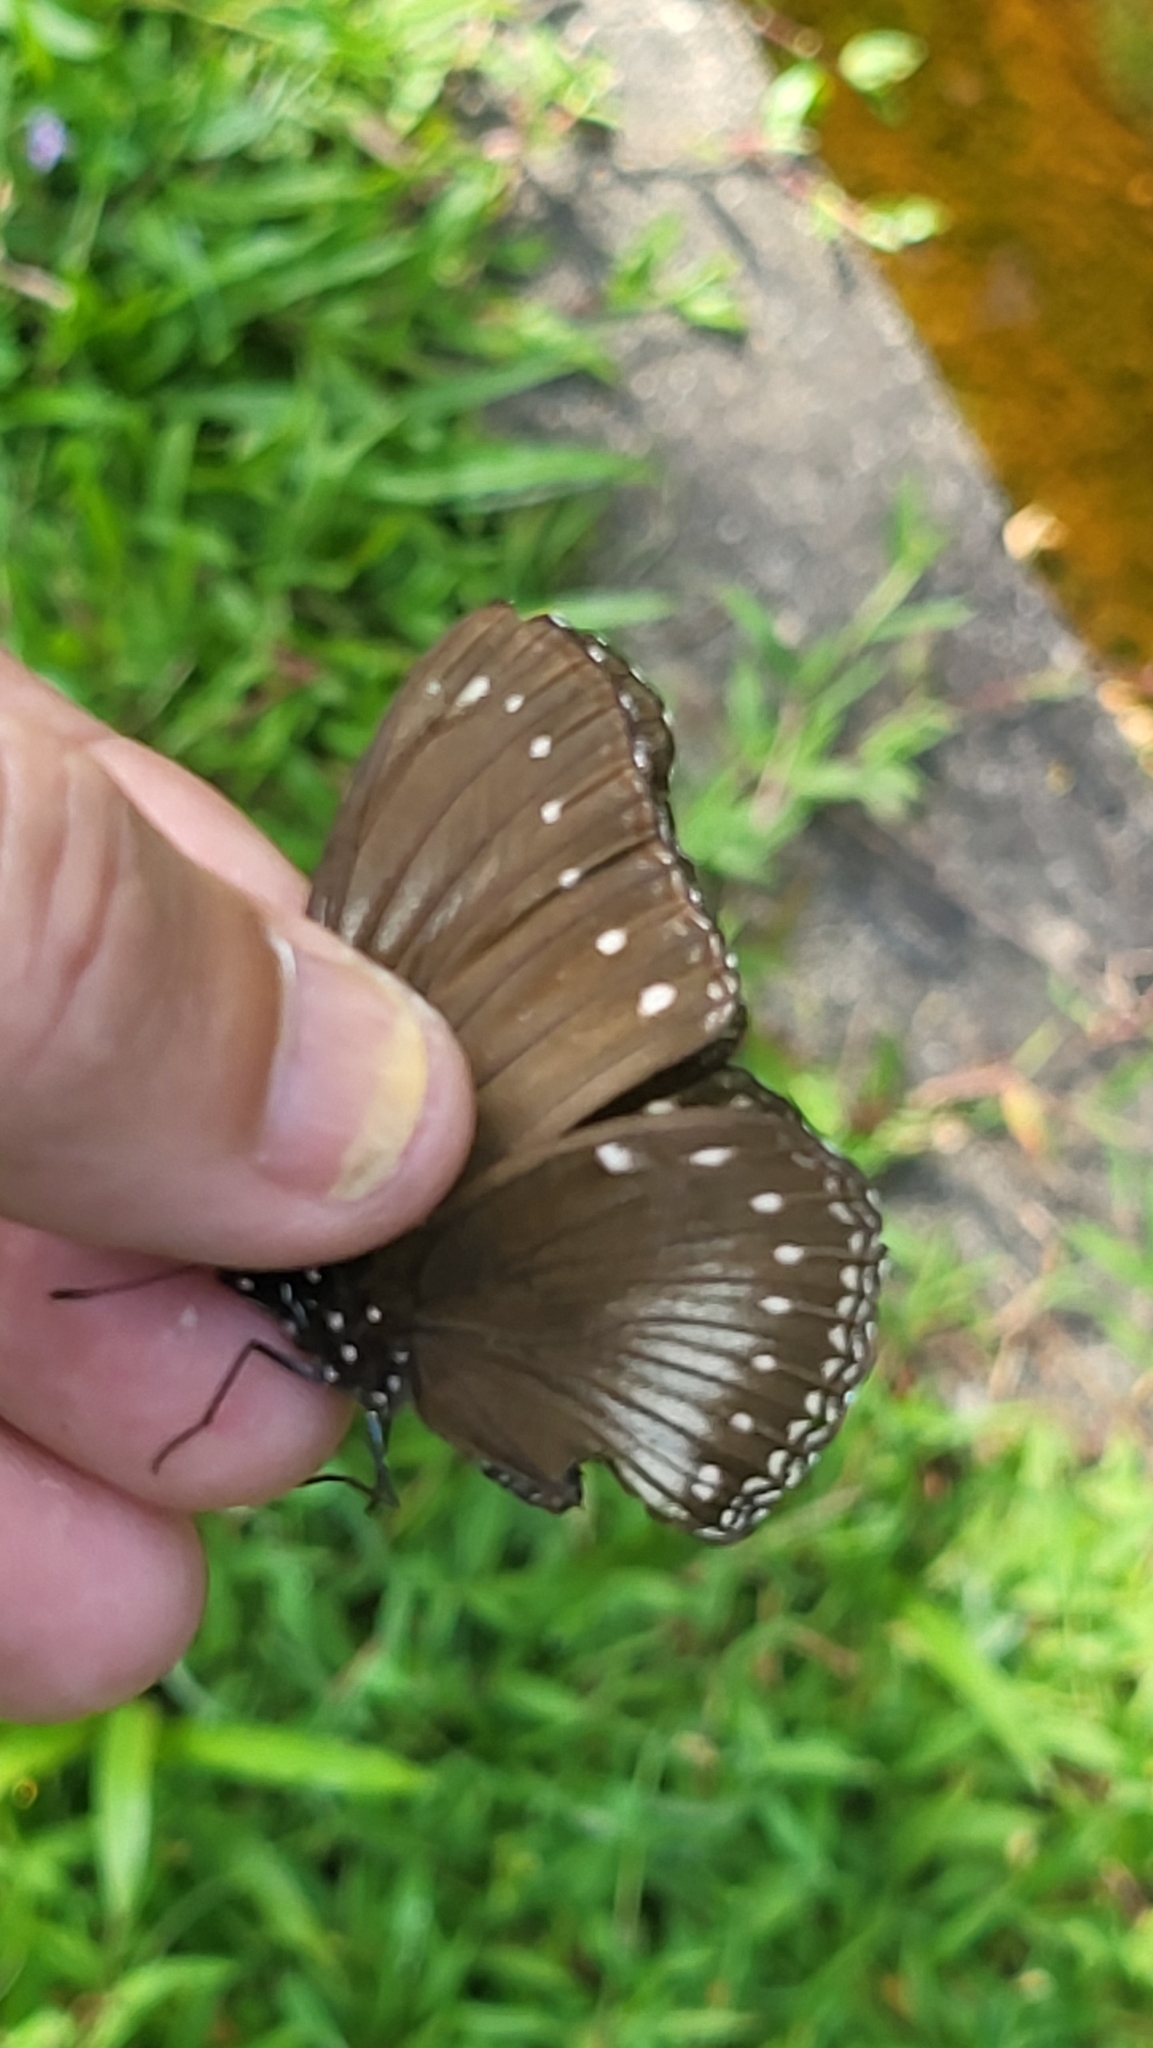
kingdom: Animalia
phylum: Arthropoda
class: Insecta
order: Lepidoptera
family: Nymphalidae
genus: Hypolimnas
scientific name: Hypolimnas anomala
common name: Malayan eggfly
